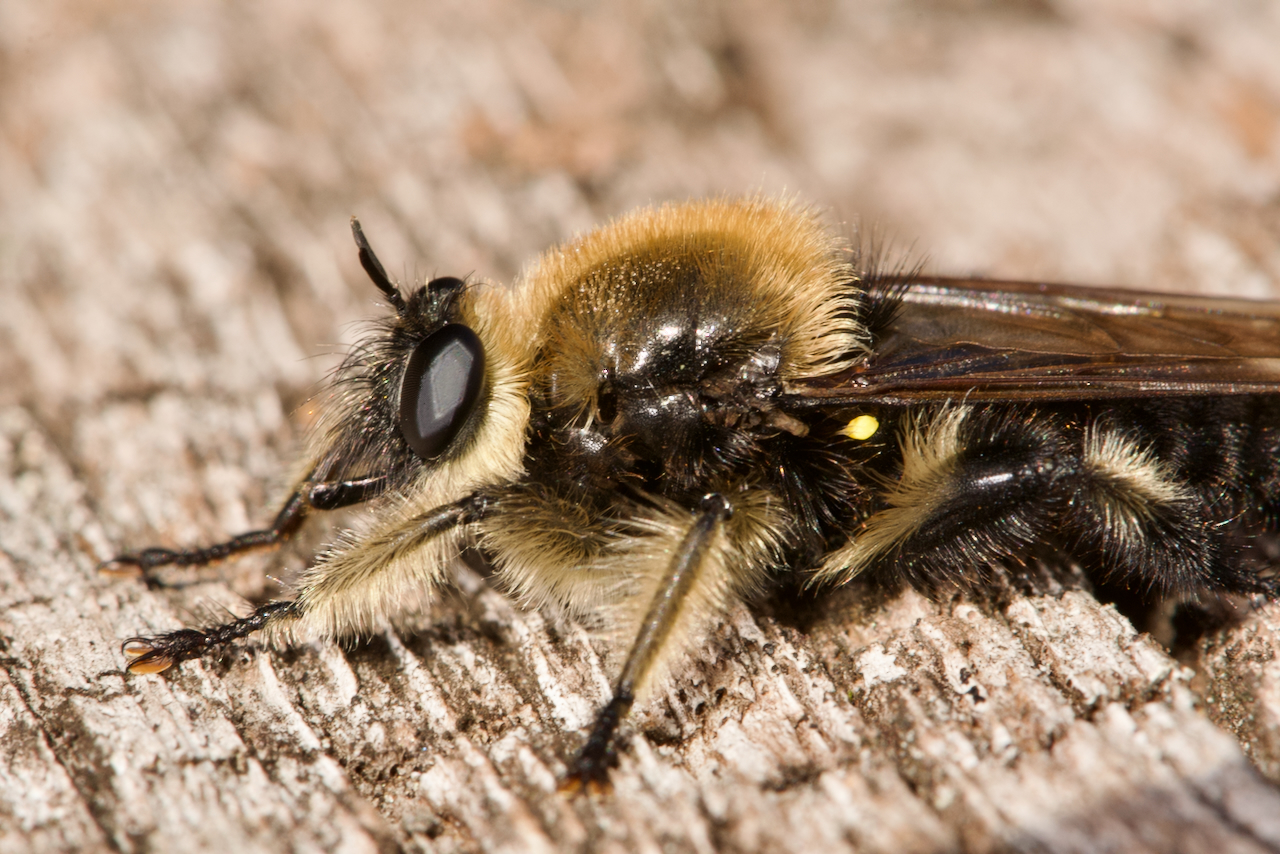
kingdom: Animalia
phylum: Arthropoda
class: Insecta
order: Diptera
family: Asilidae
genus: Laphria
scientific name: Laphria affinis
